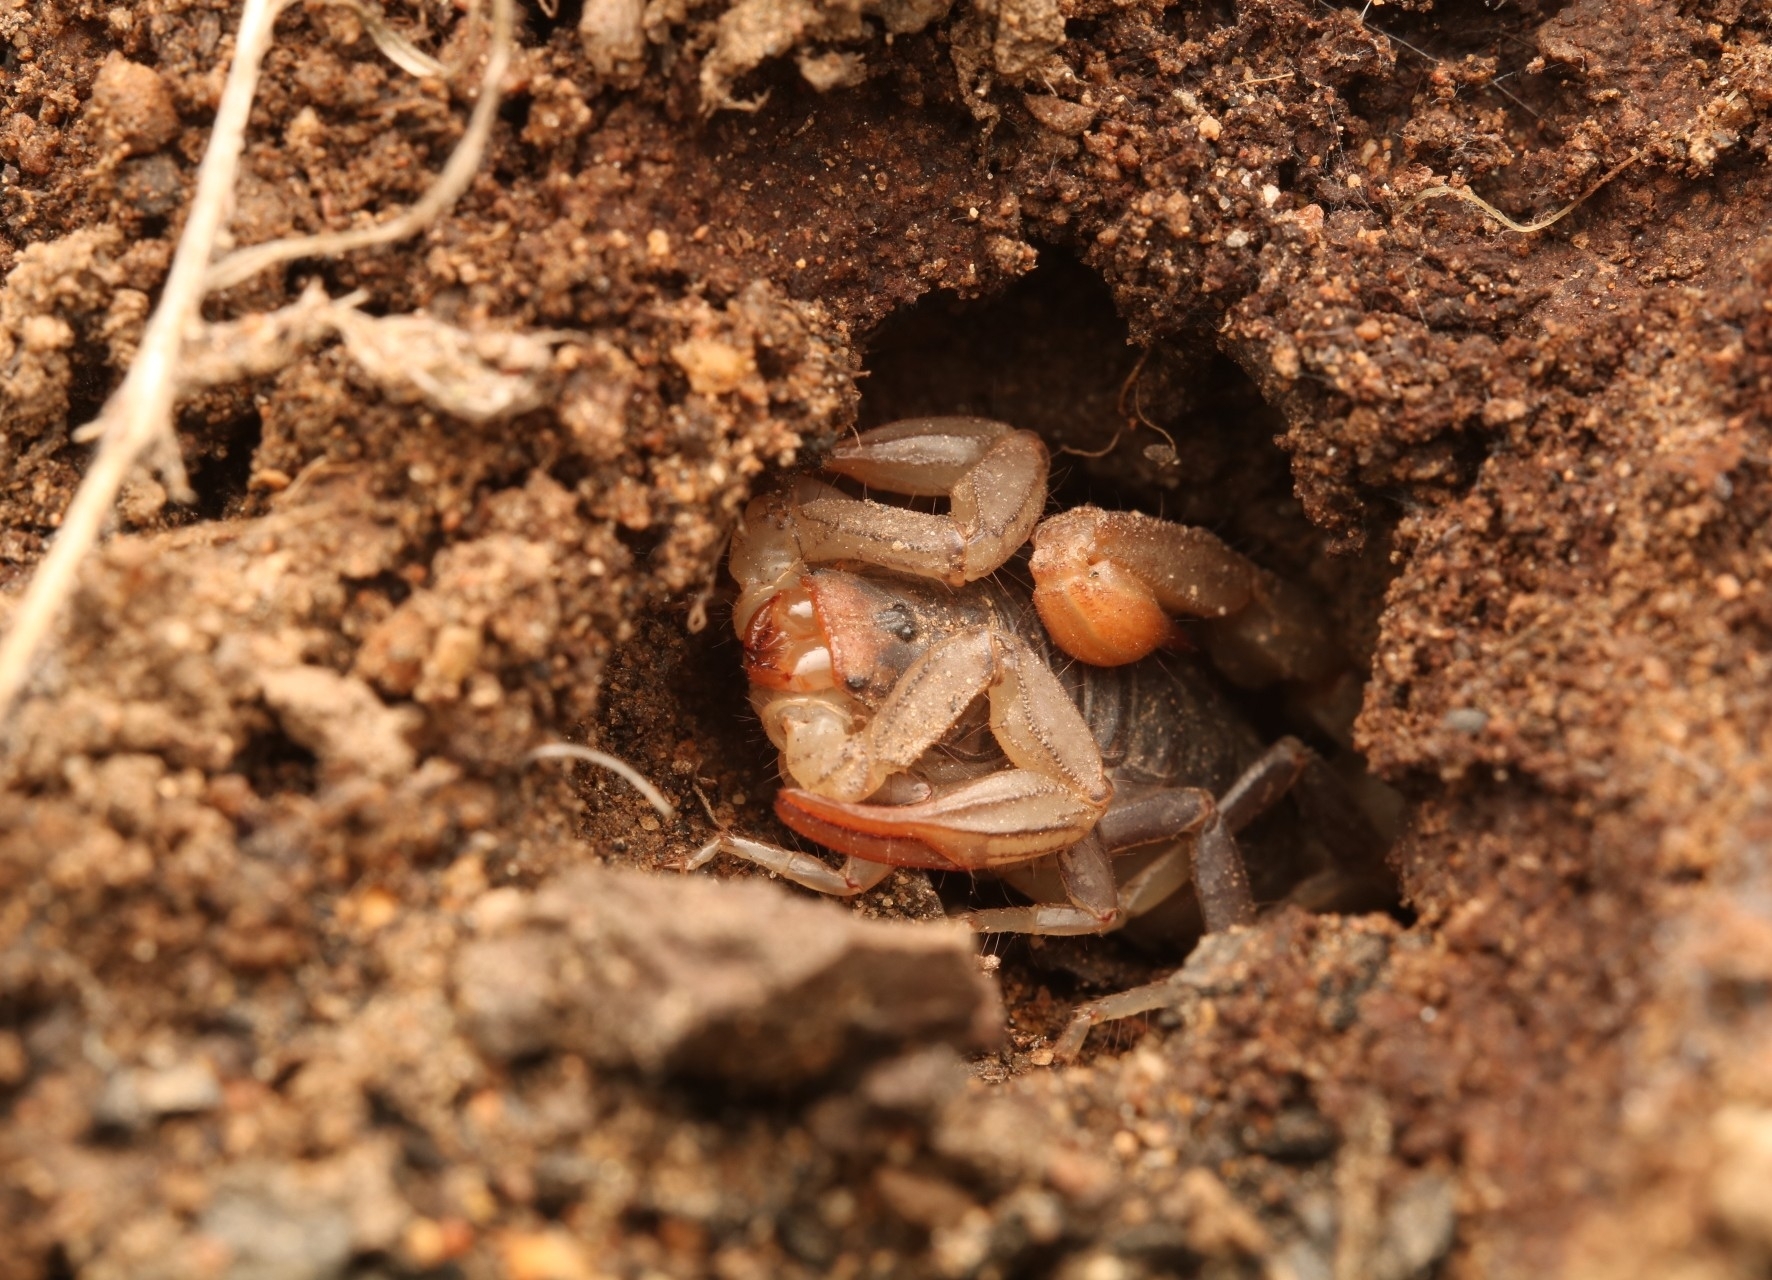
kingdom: Animalia
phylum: Arthropoda
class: Arachnida
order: Scorpiones
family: Vaejovidae
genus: Paruroctonus
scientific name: Paruroctonus silvestrii
